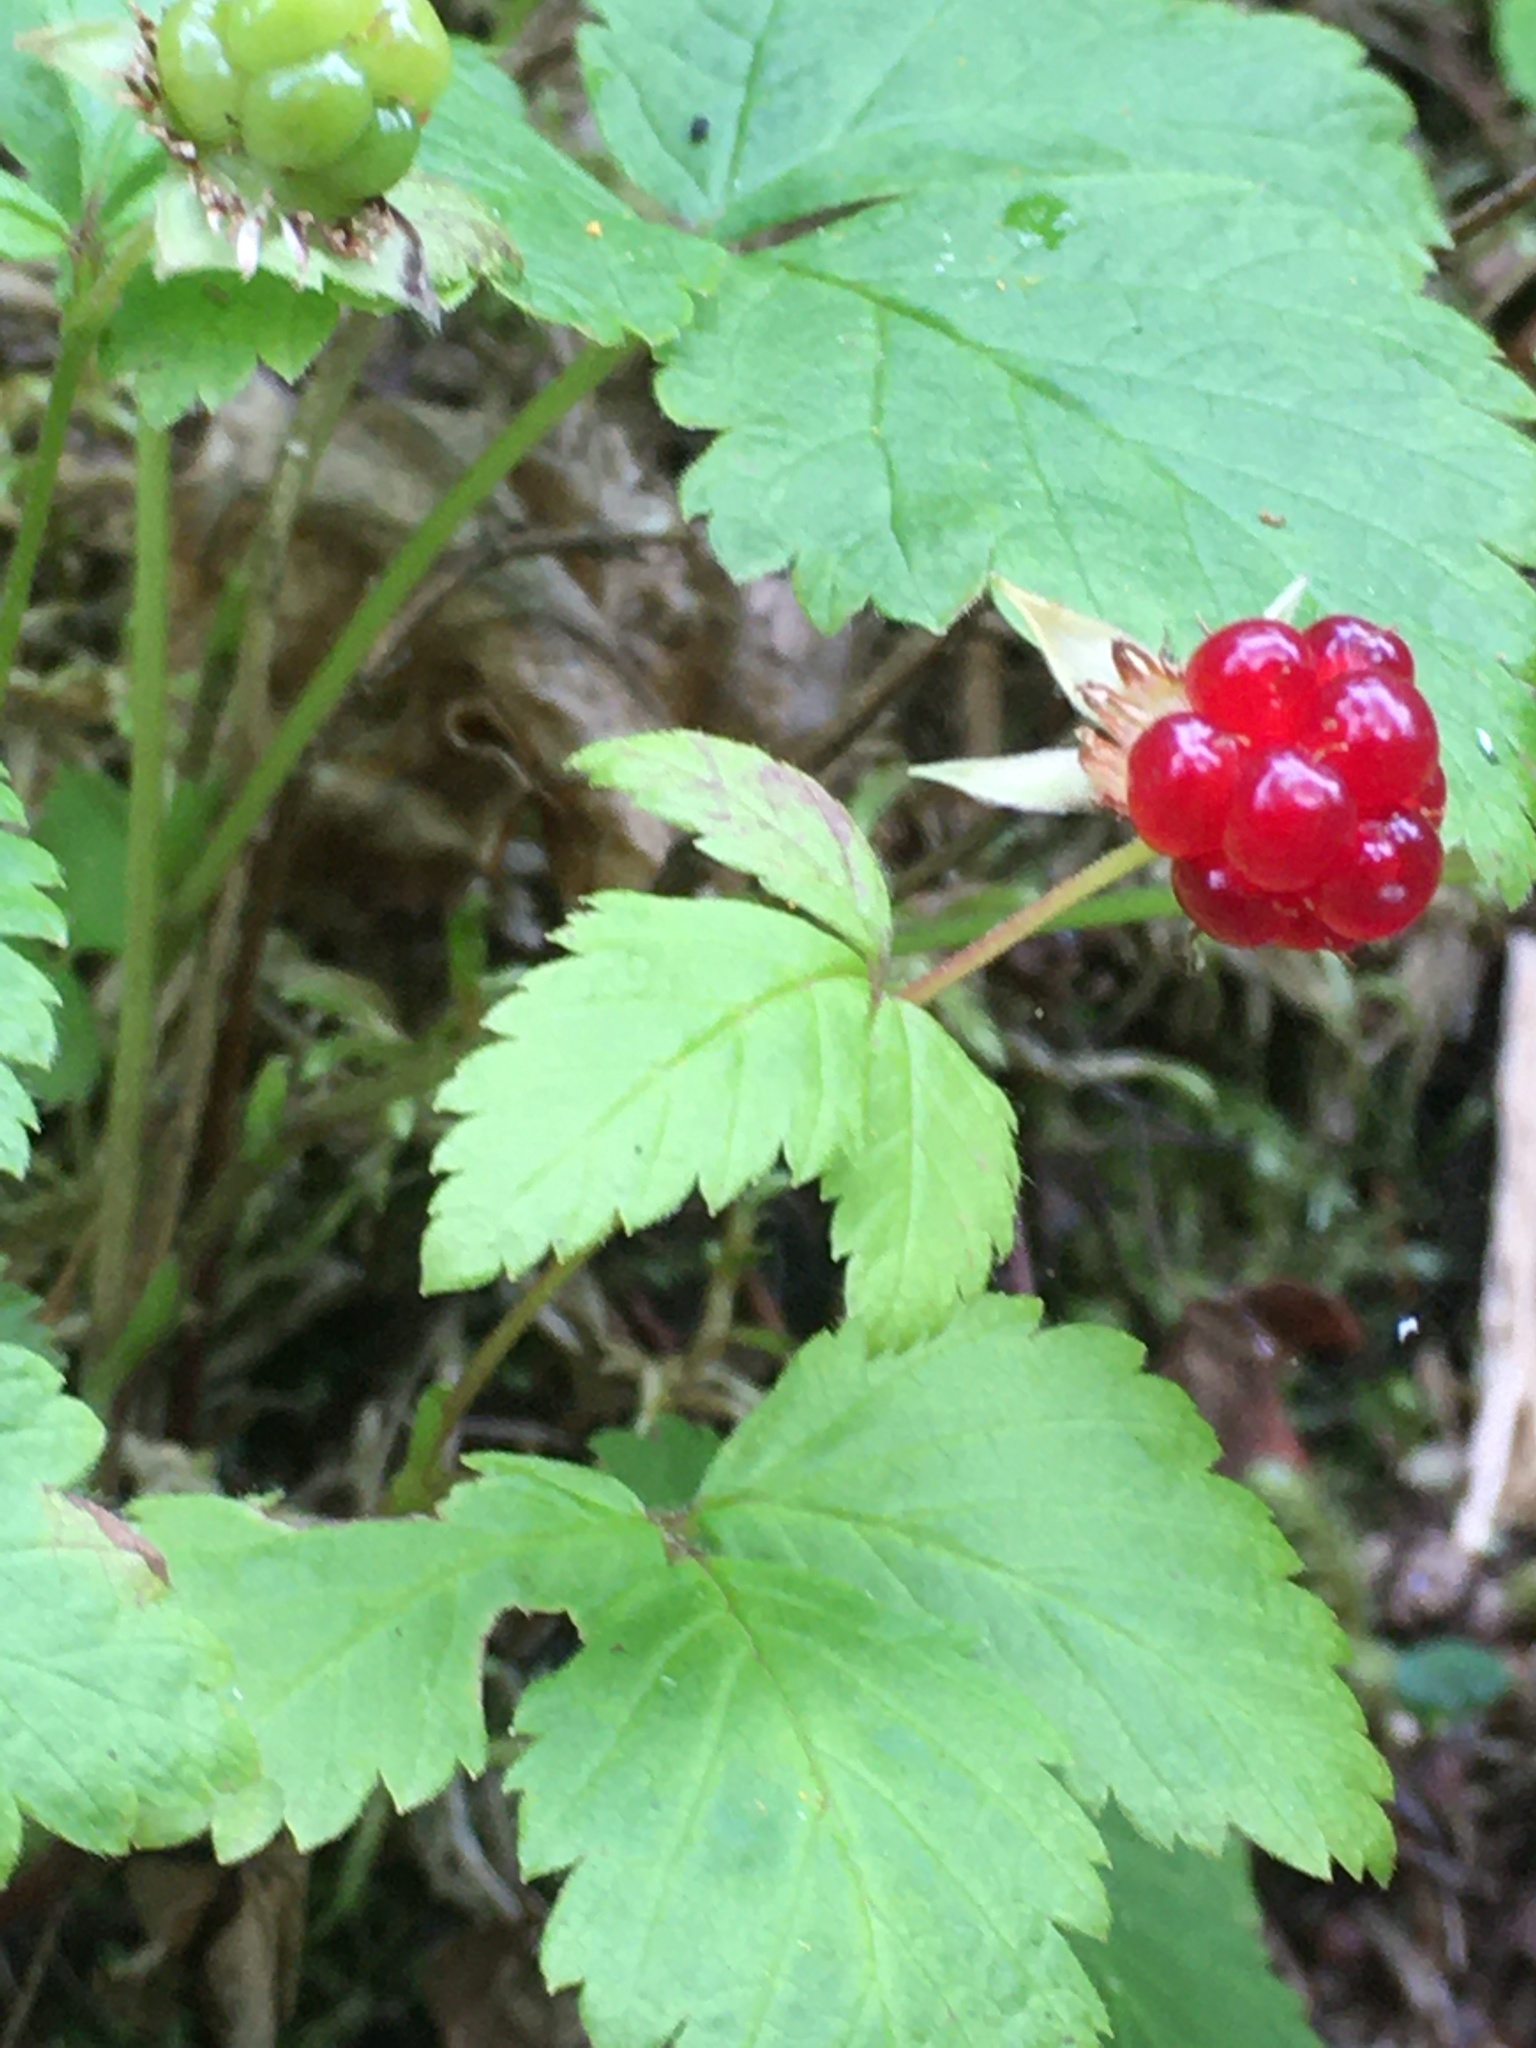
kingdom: Plantae
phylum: Tracheophyta
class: Magnoliopsida
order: Rosales
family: Rosaceae
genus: Rubus
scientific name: Rubus pubescens
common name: Dwarf raspberry
